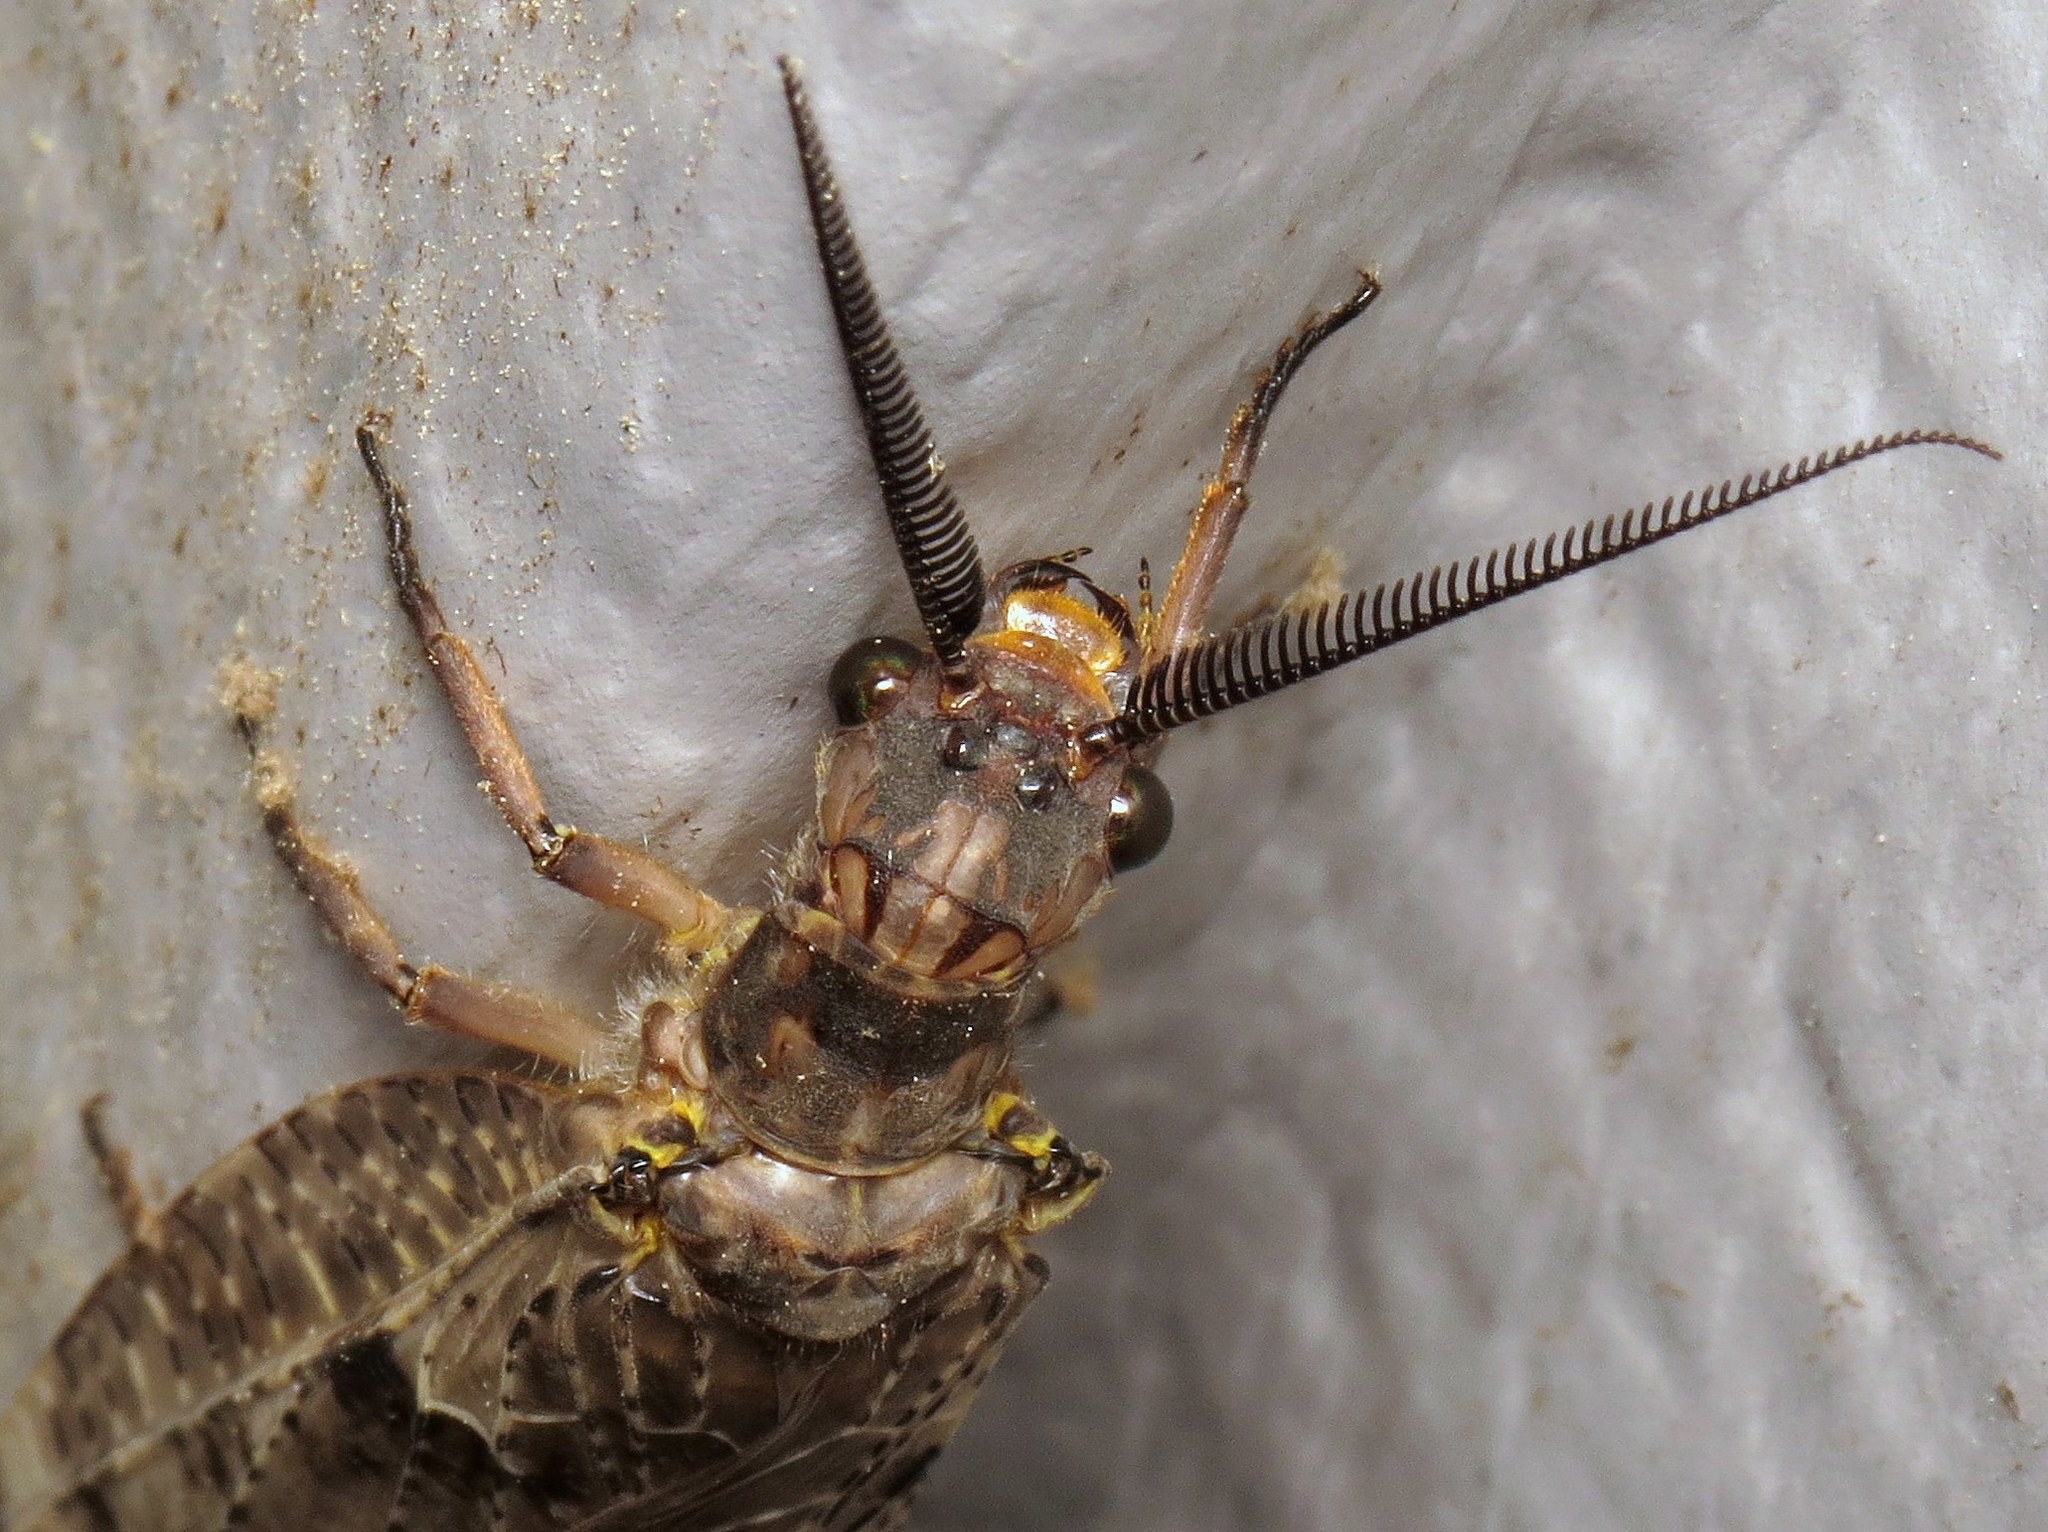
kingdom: Animalia
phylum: Arthropoda
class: Insecta
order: Megaloptera
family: Corydalidae
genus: Chauliodes
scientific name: Chauliodes pectinicornis
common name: Summer fishfly
